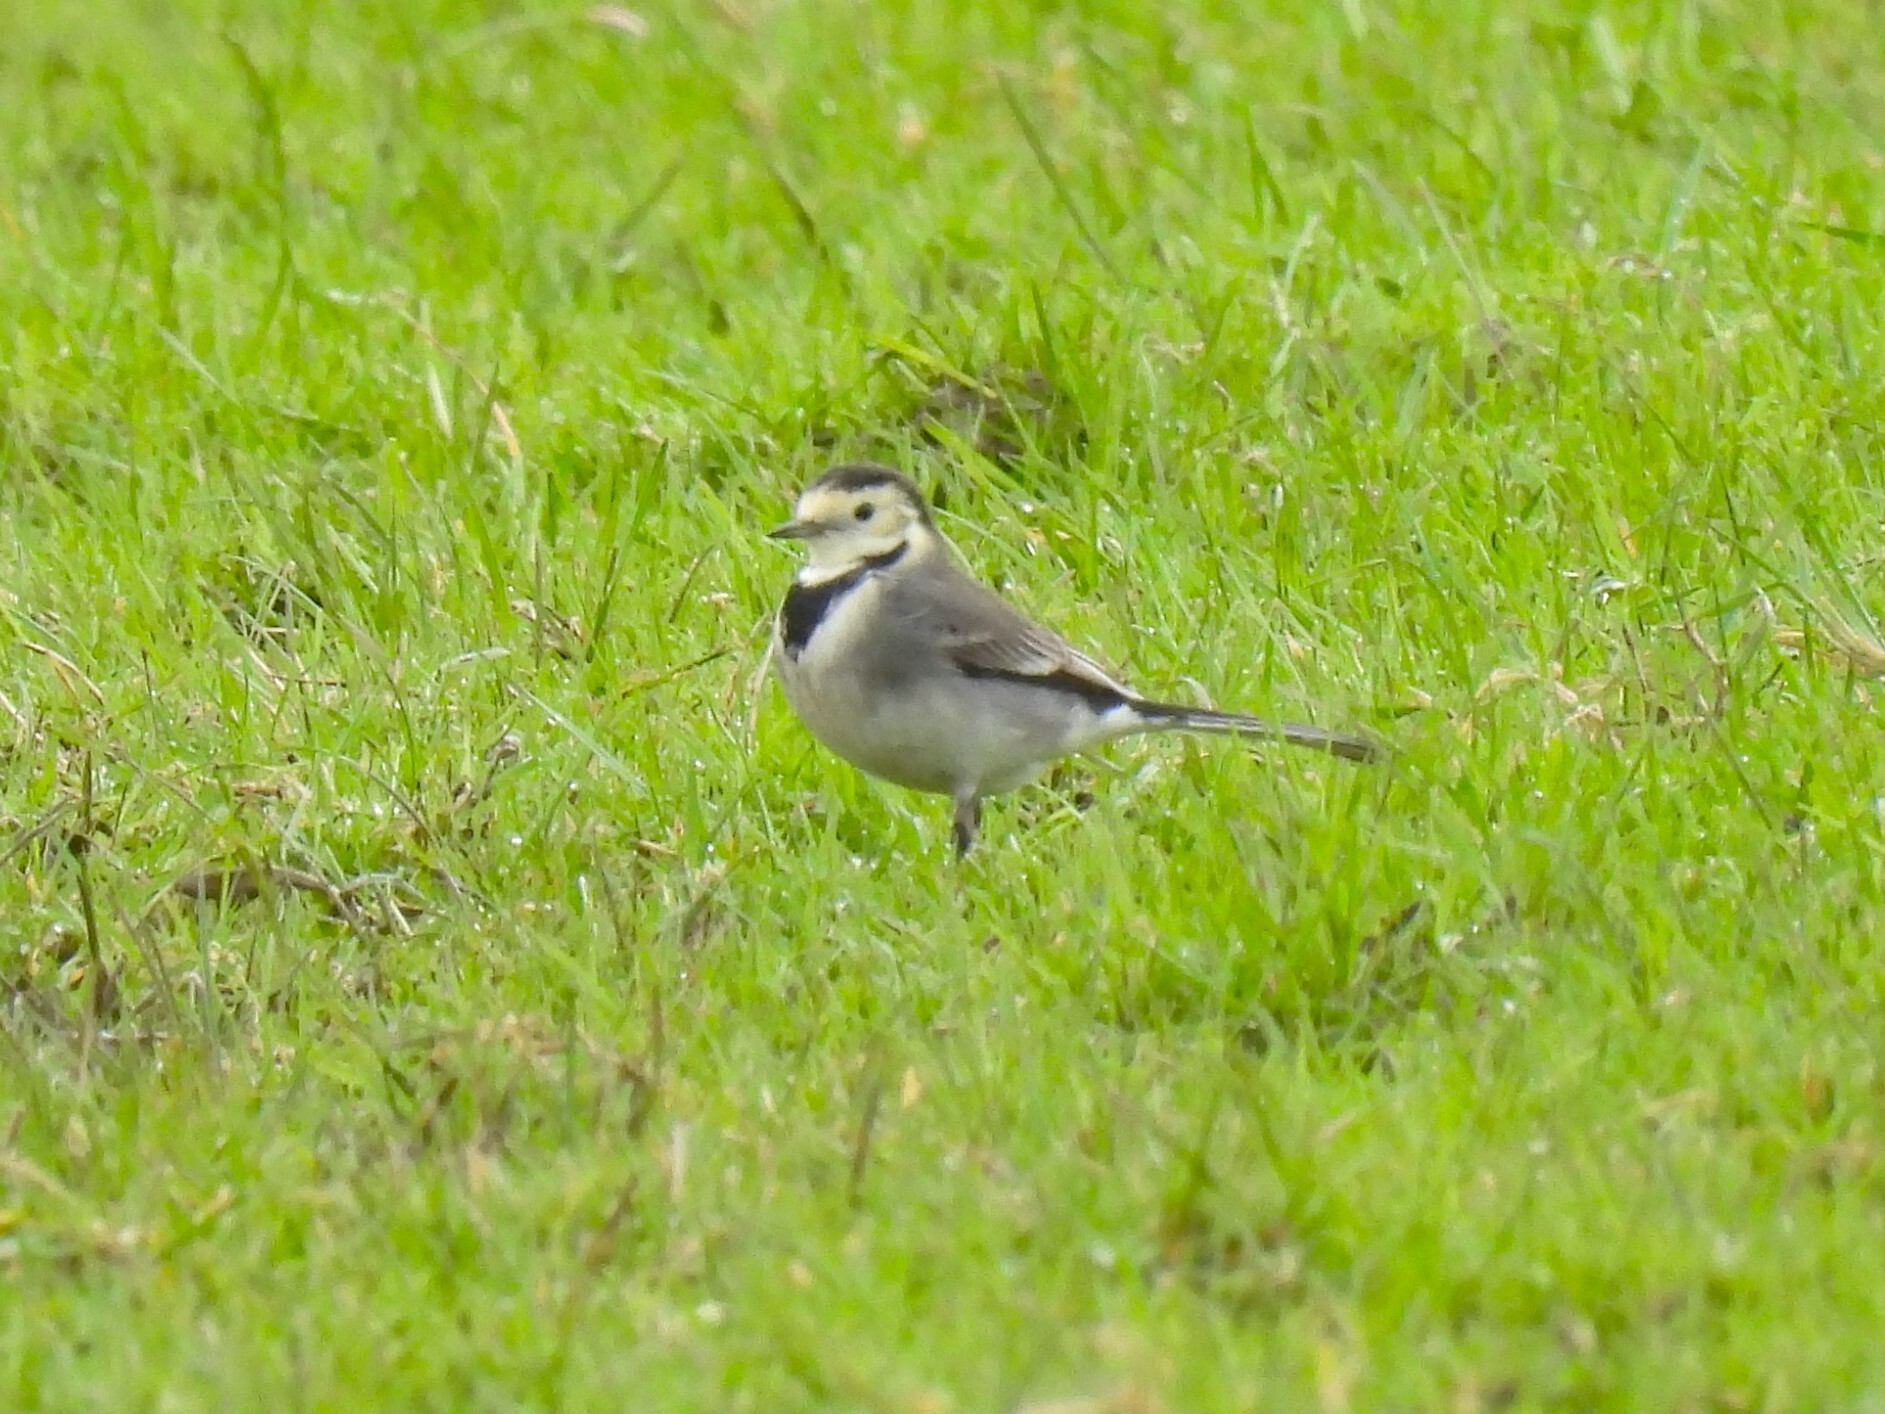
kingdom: Animalia
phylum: Chordata
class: Aves
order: Passeriformes
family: Motacillidae
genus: Motacilla
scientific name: Motacilla alba
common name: White wagtail
